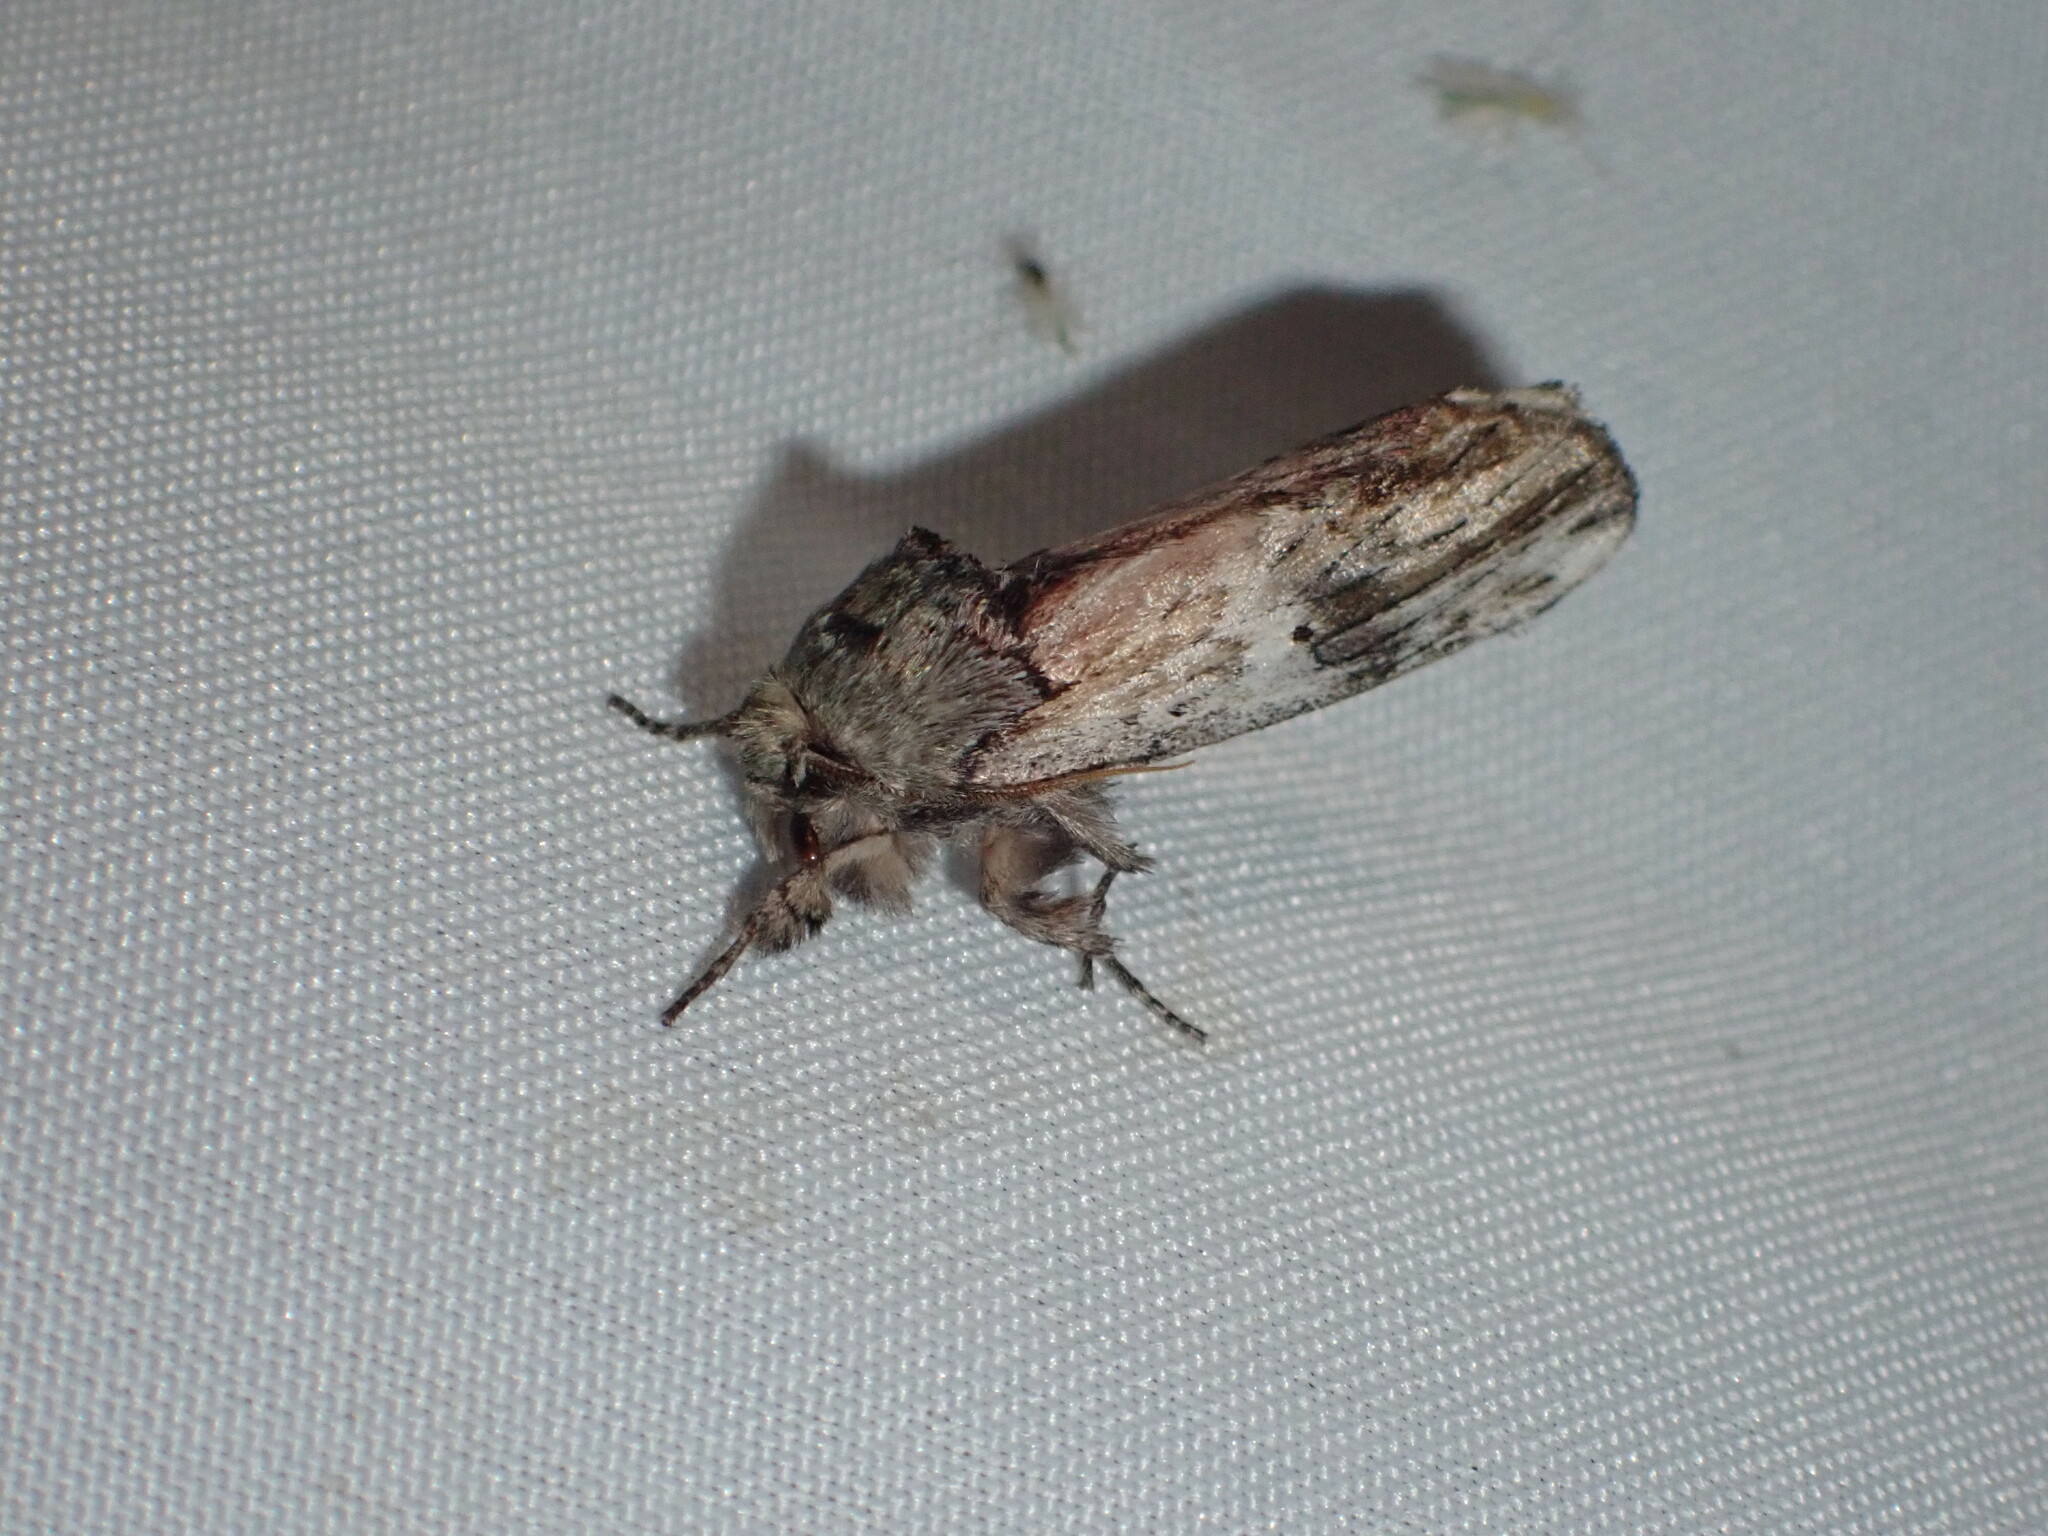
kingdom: Animalia
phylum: Arthropoda
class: Insecta
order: Lepidoptera
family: Notodontidae
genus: Schizura
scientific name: Schizura
